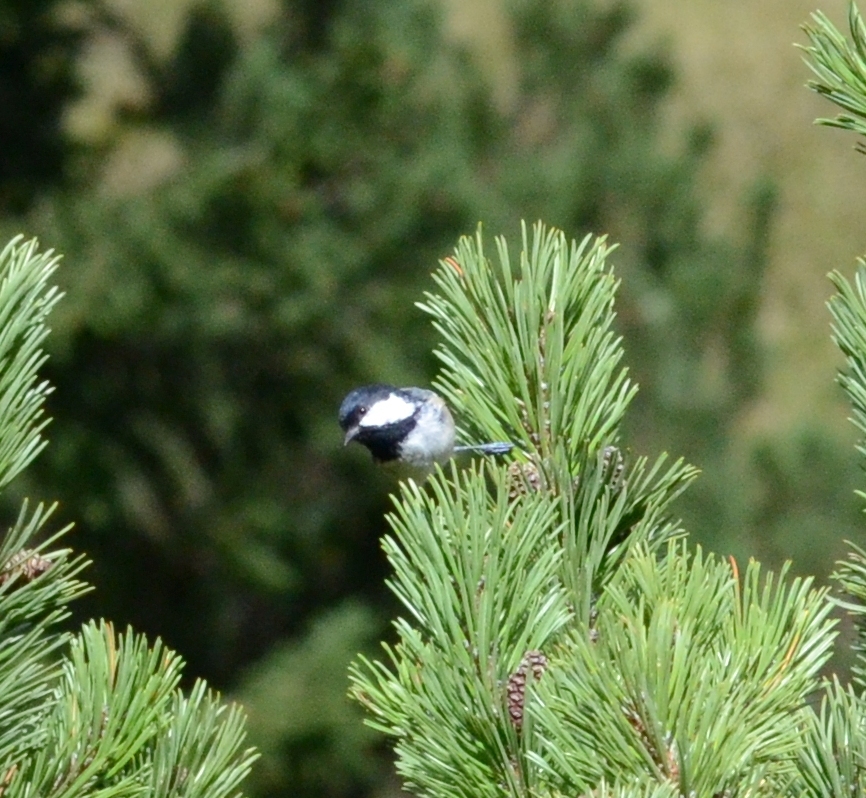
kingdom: Animalia
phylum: Chordata
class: Aves
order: Passeriformes
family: Paridae
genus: Periparus
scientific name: Periparus ater
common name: Coal tit
